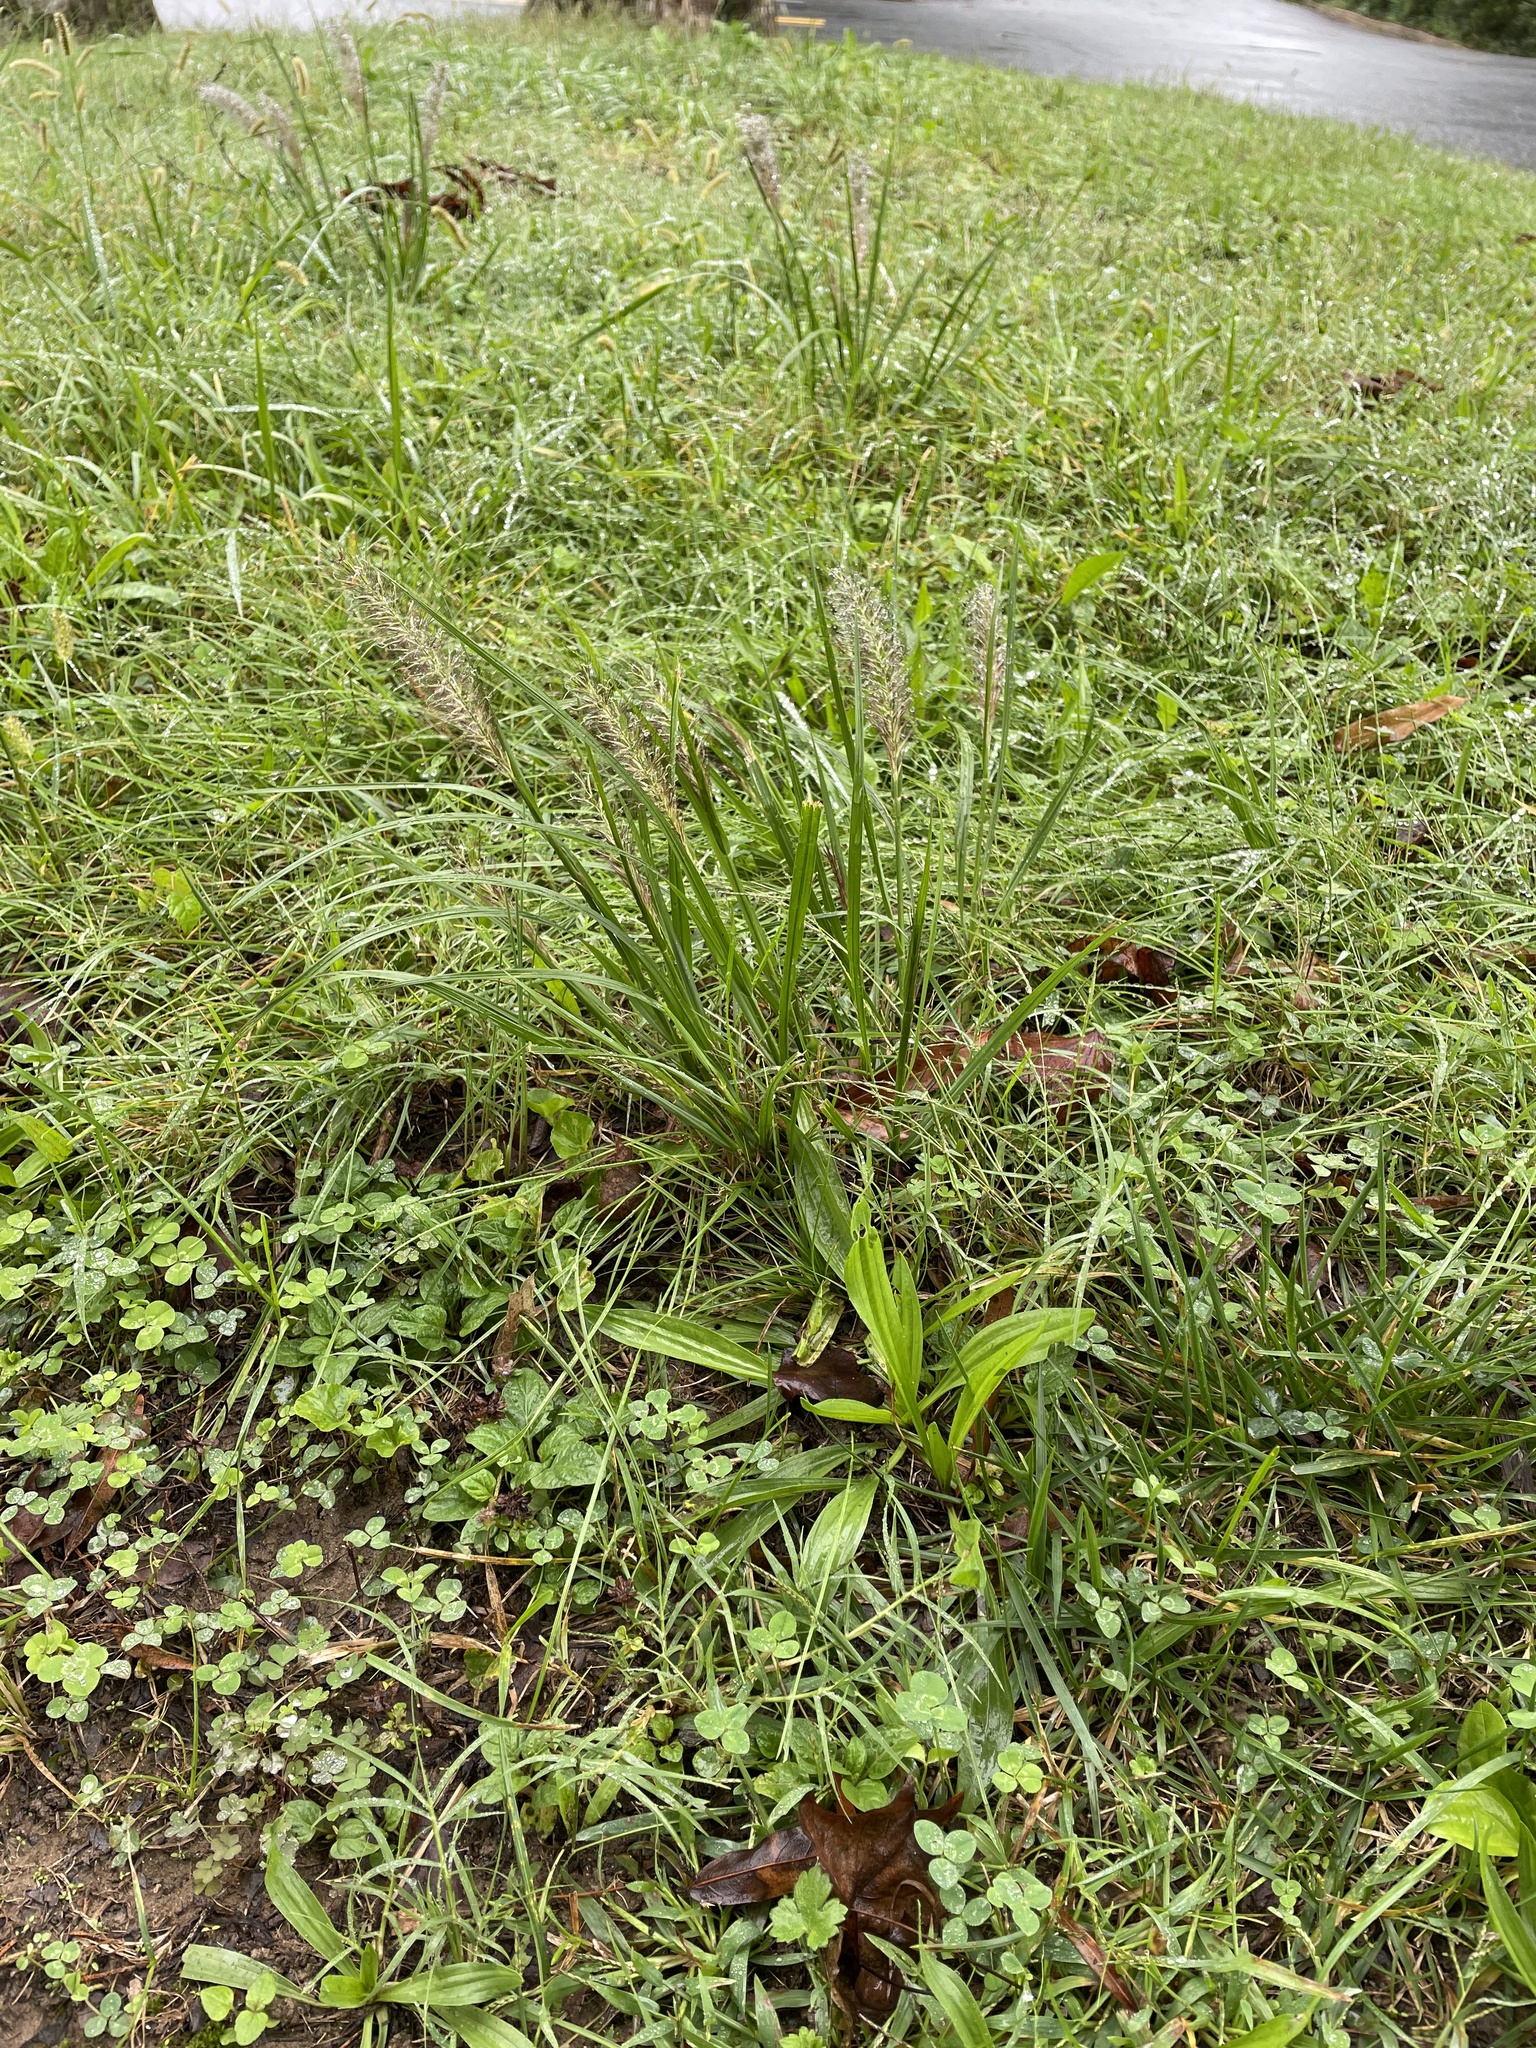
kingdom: Plantae
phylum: Tracheophyta
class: Liliopsida
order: Poales
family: Poaceae
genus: Cenchrus
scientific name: Cenchrus alopecuroides
